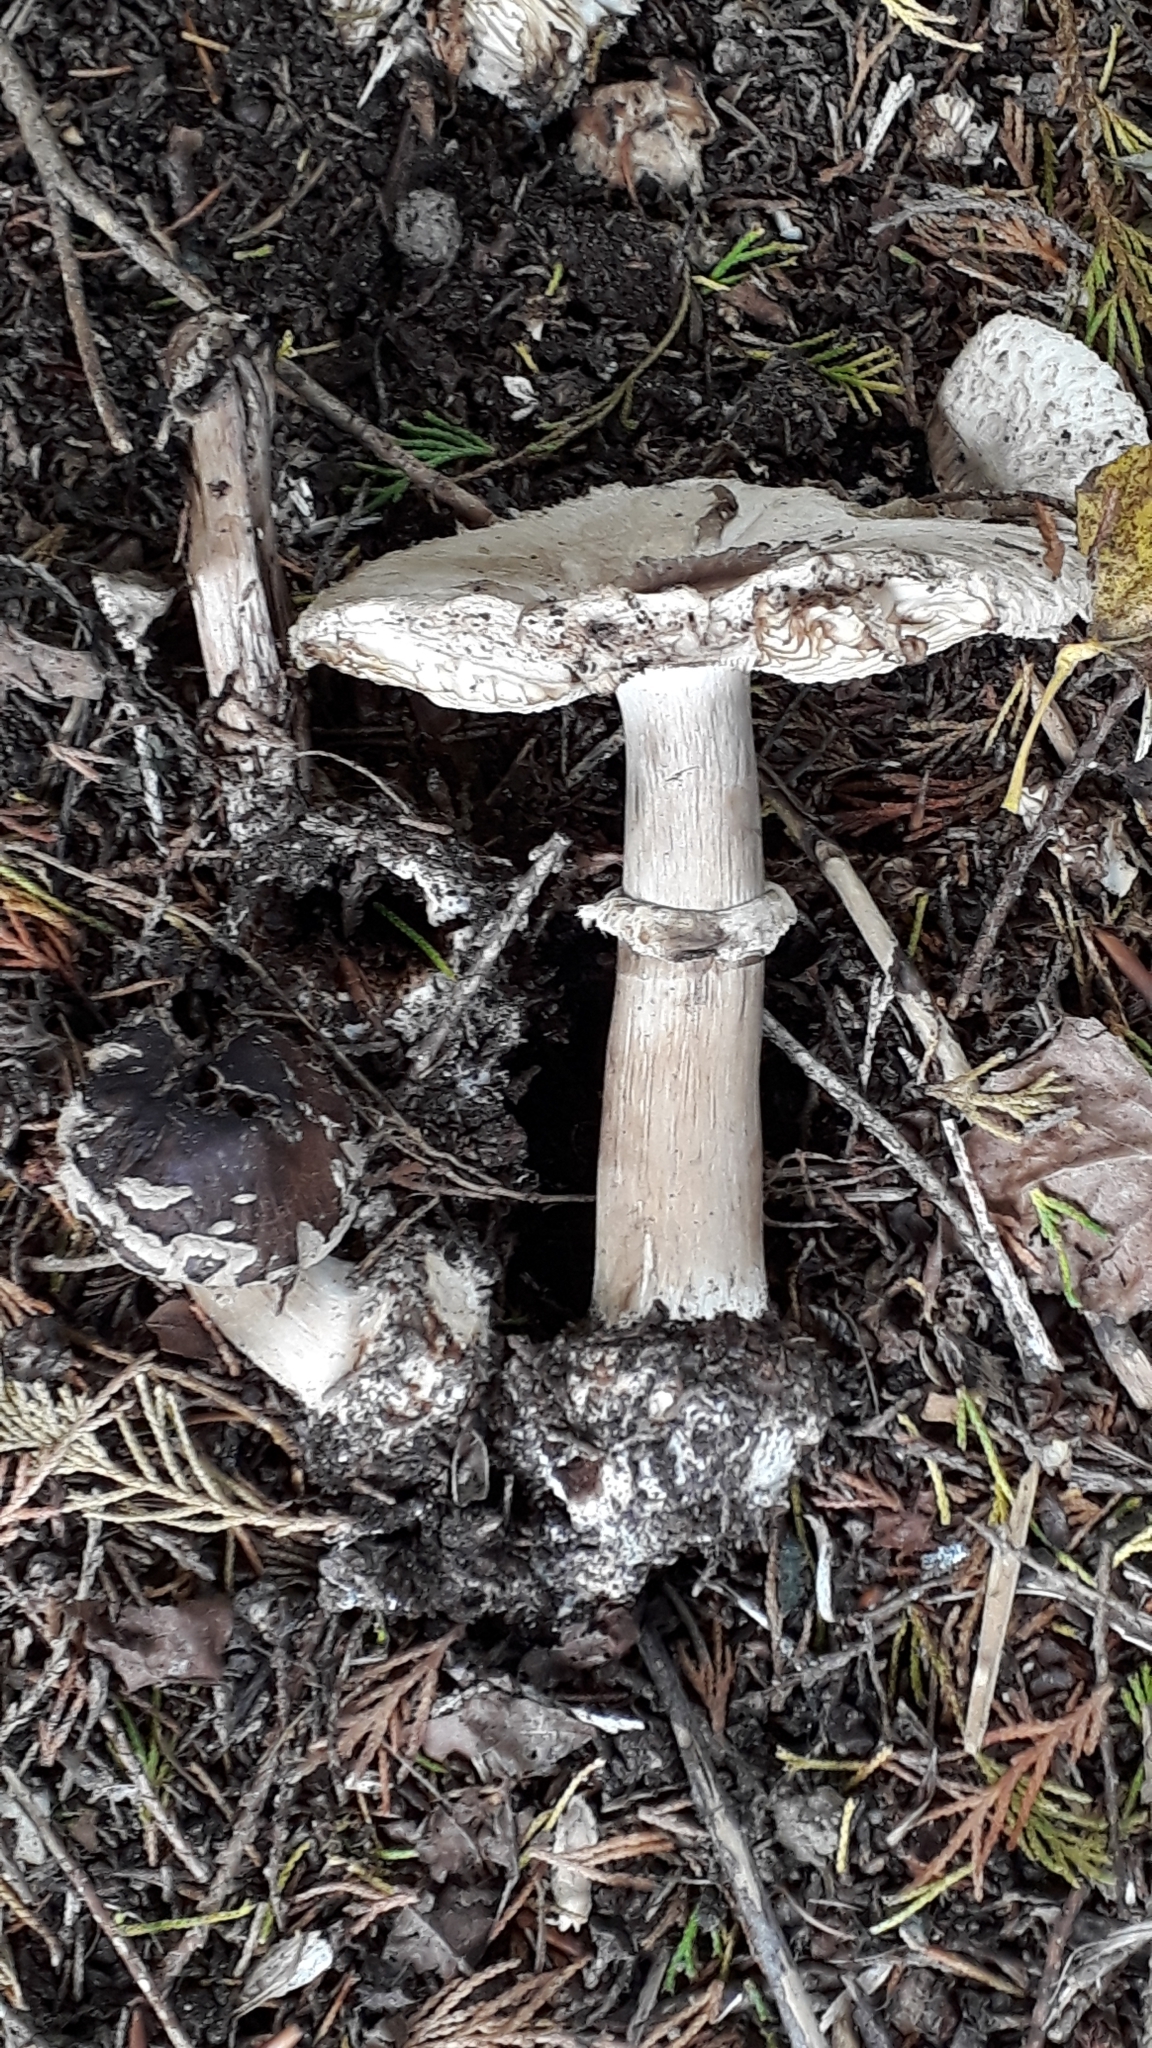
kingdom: Fungi
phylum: Basidiomycota
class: Agaricomycetes
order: Agaricales
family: Agaricaceae
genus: Chlorophyllum
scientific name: Chlorophyllum brunneum
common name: Brown parasol
